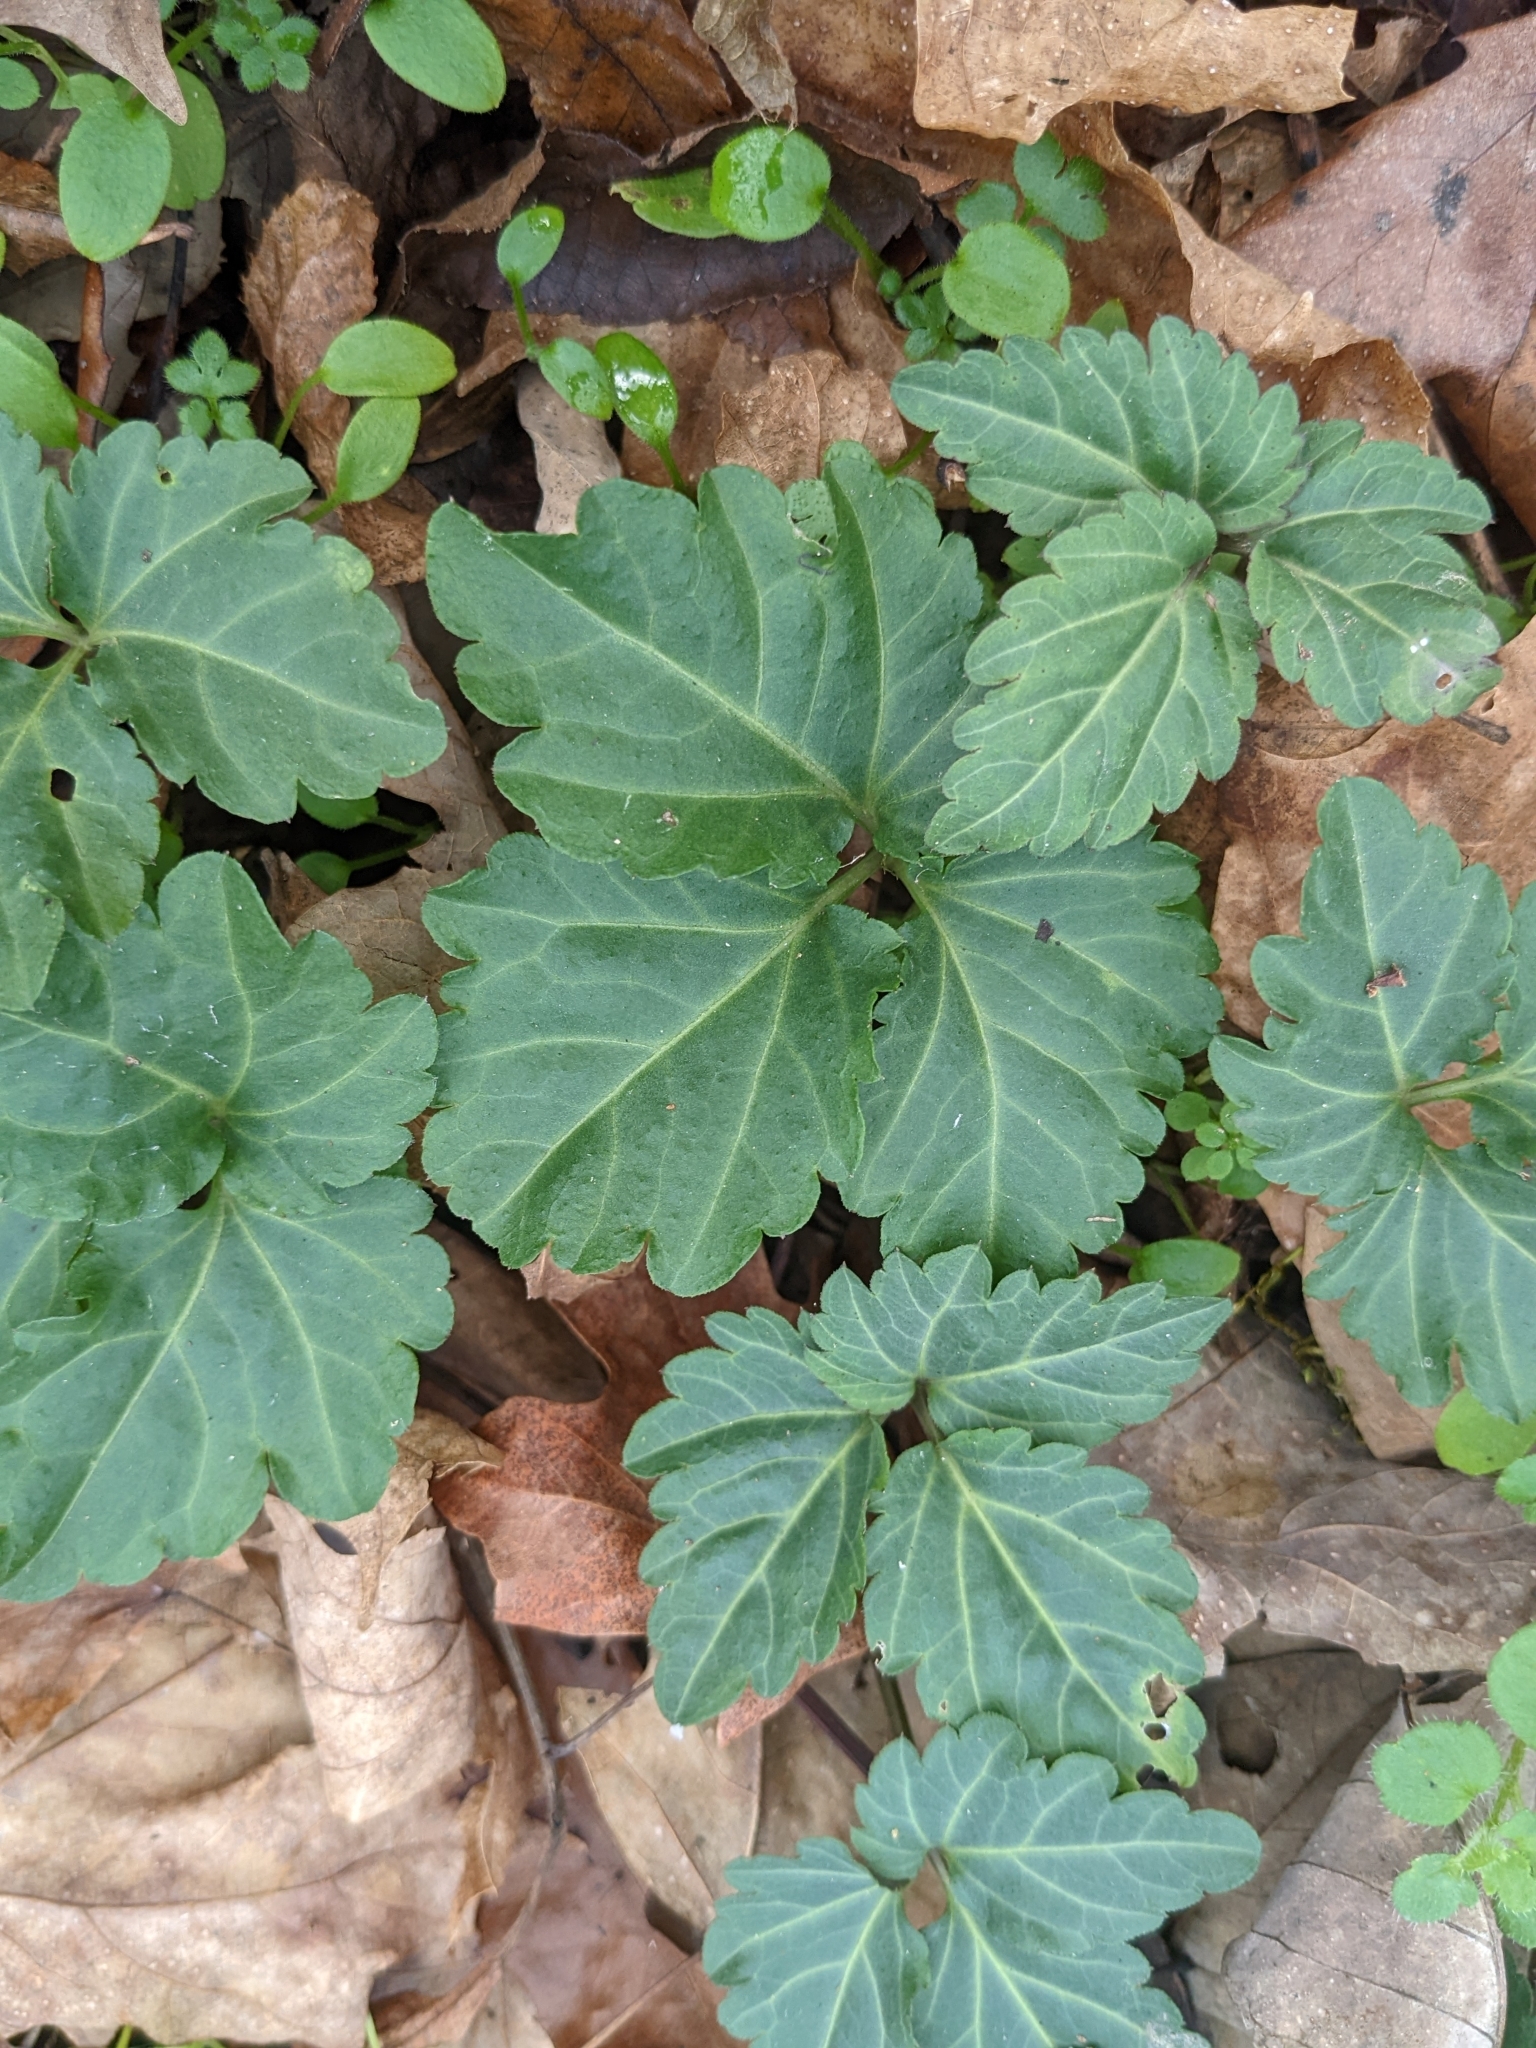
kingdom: Plantae
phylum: Tracheophyta
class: Magnoliopsida
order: Brassicales
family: Brassicaceae
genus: Cardamine
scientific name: Cardamine diphylla
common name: Broad-leaved toothwort
